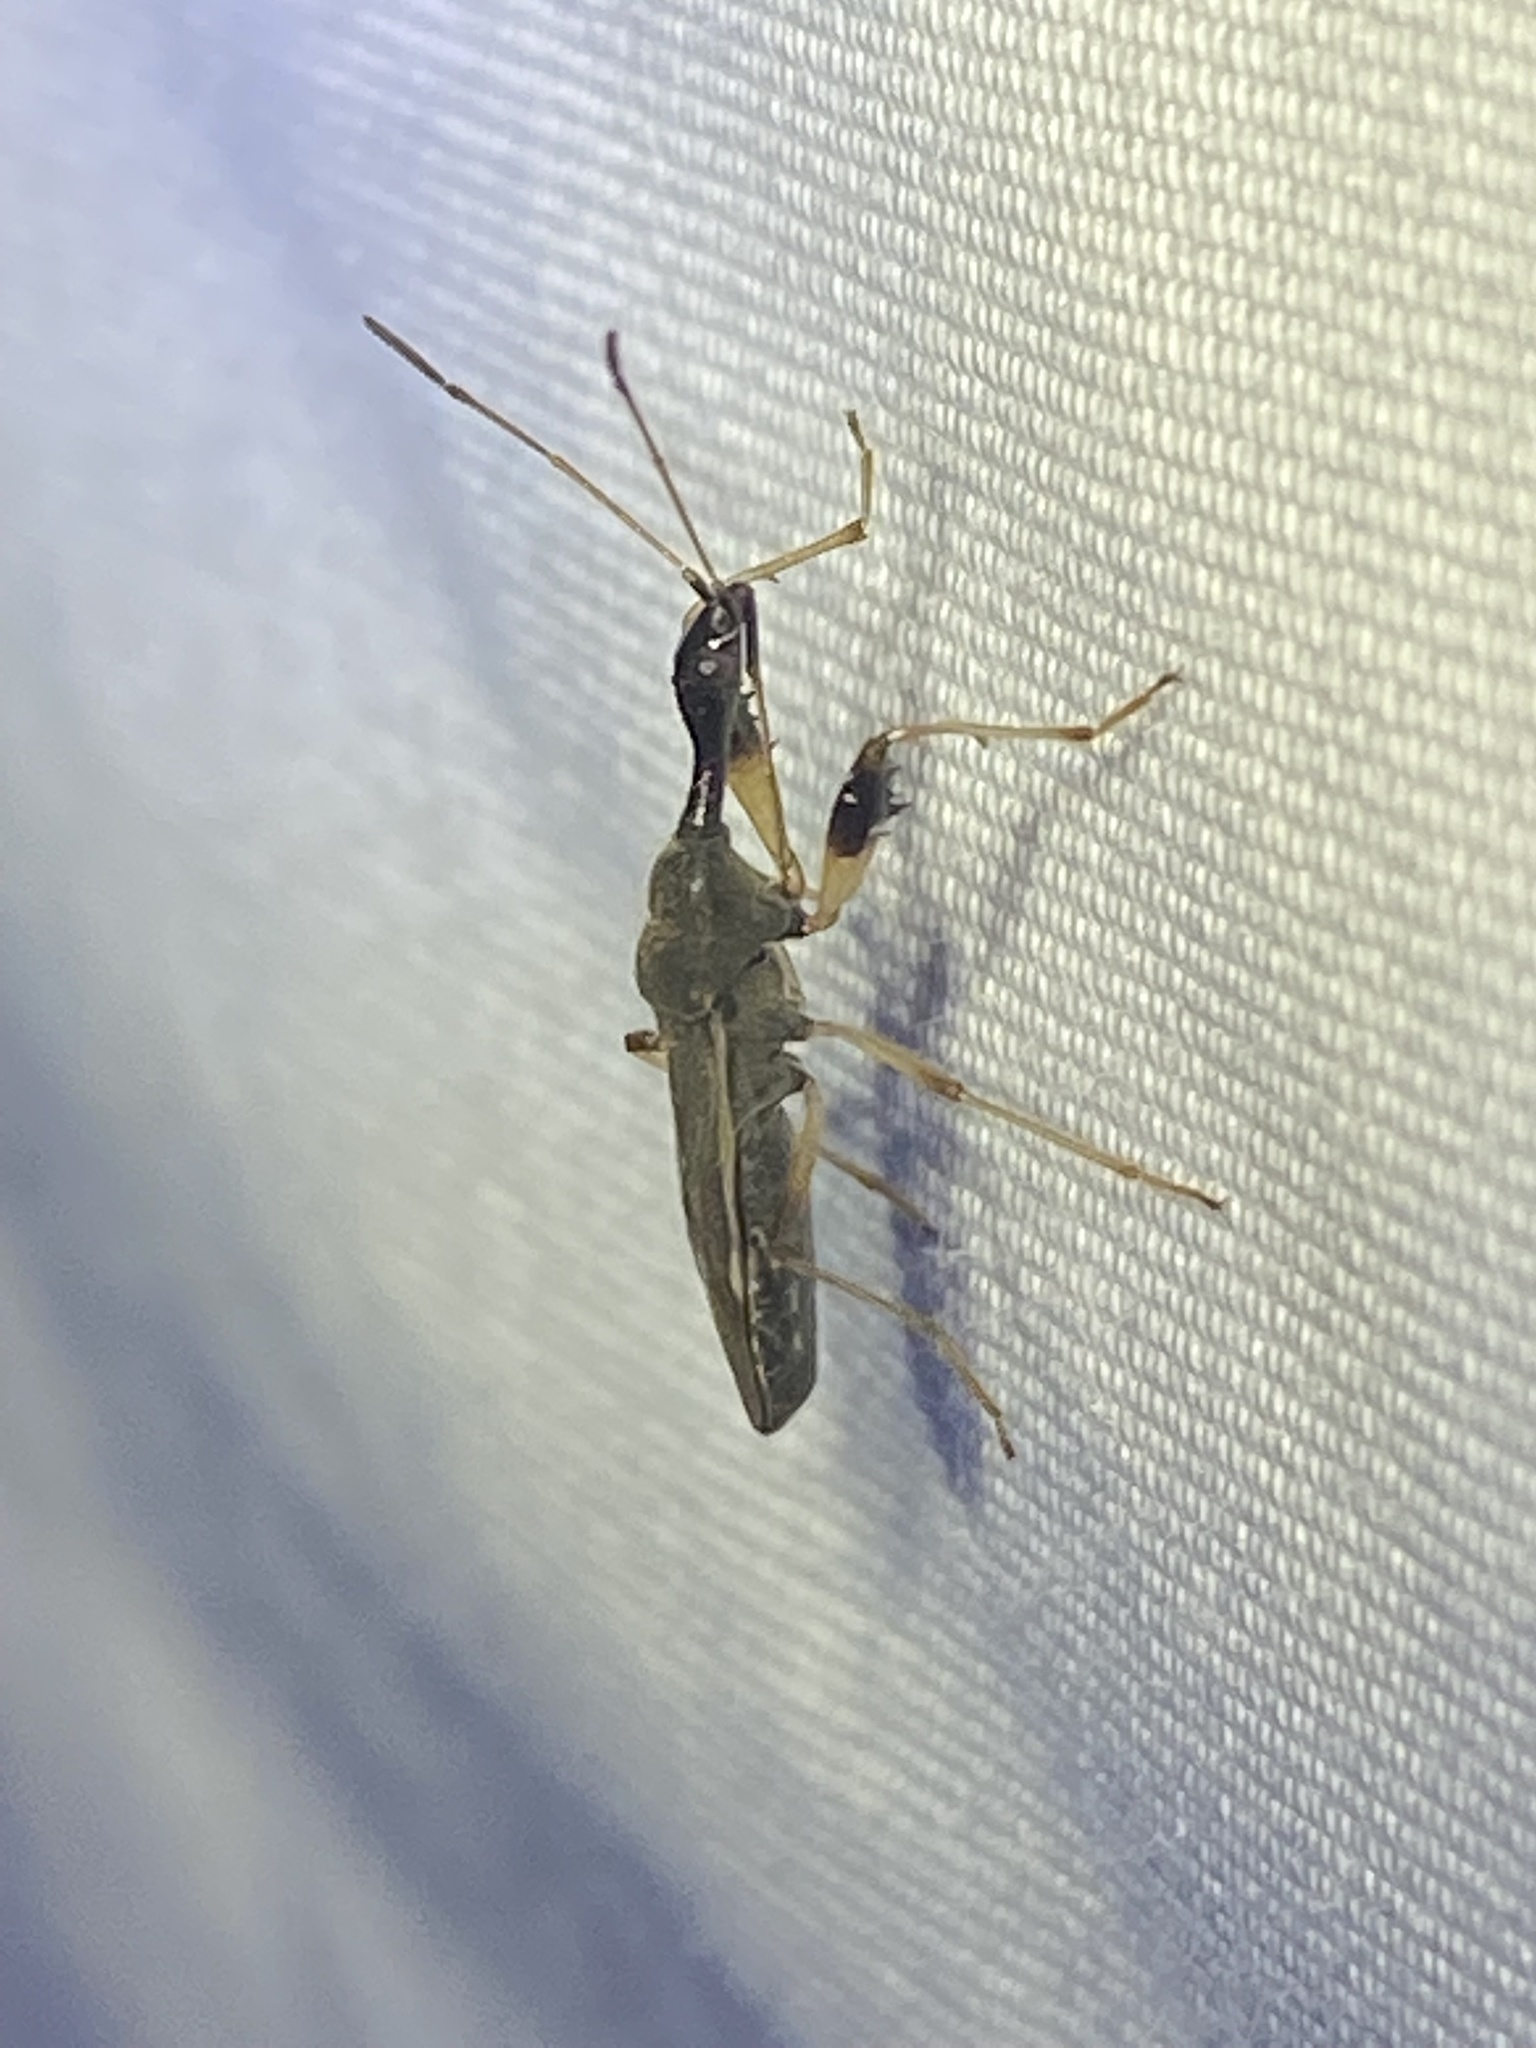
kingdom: Animalia
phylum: Arthropoda
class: Insecta
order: Hemiptera
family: Rhyparochromidae
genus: Myodocha
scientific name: Myodocha serripes
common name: Long-necked seed bug
